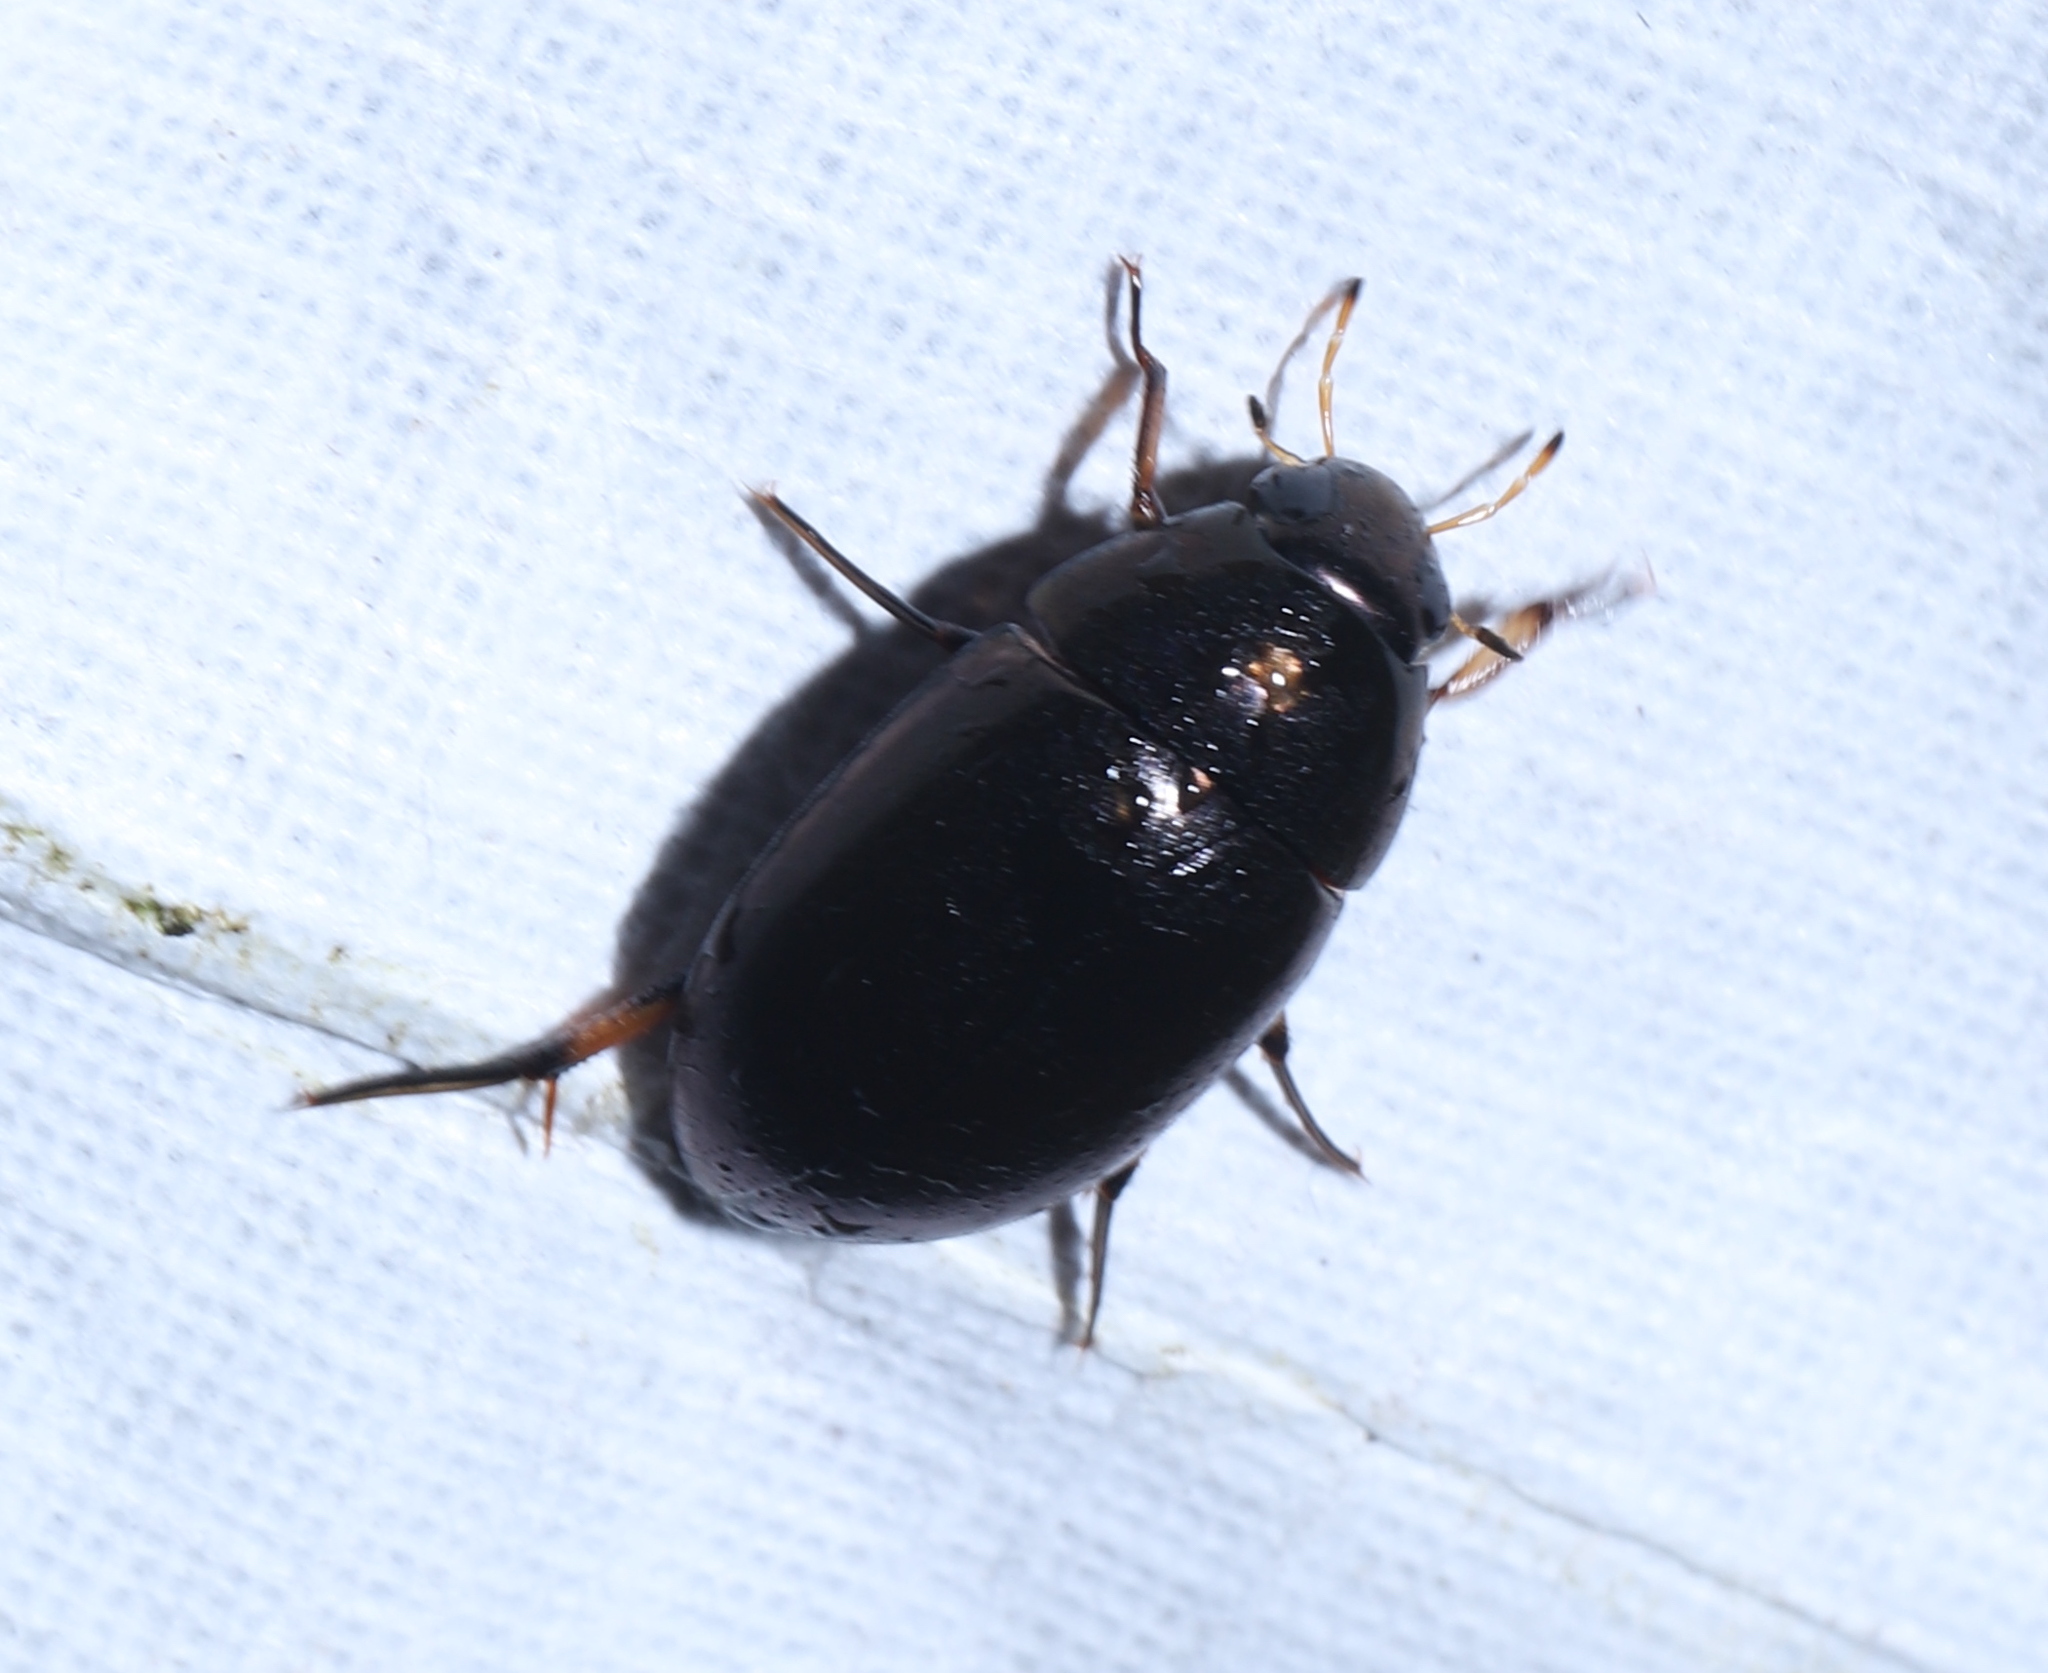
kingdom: Animalia
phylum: Arthropoda
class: Insecta
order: Coleoptera
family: Hydrophilidae
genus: Tropisternus
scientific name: Tropisternus
